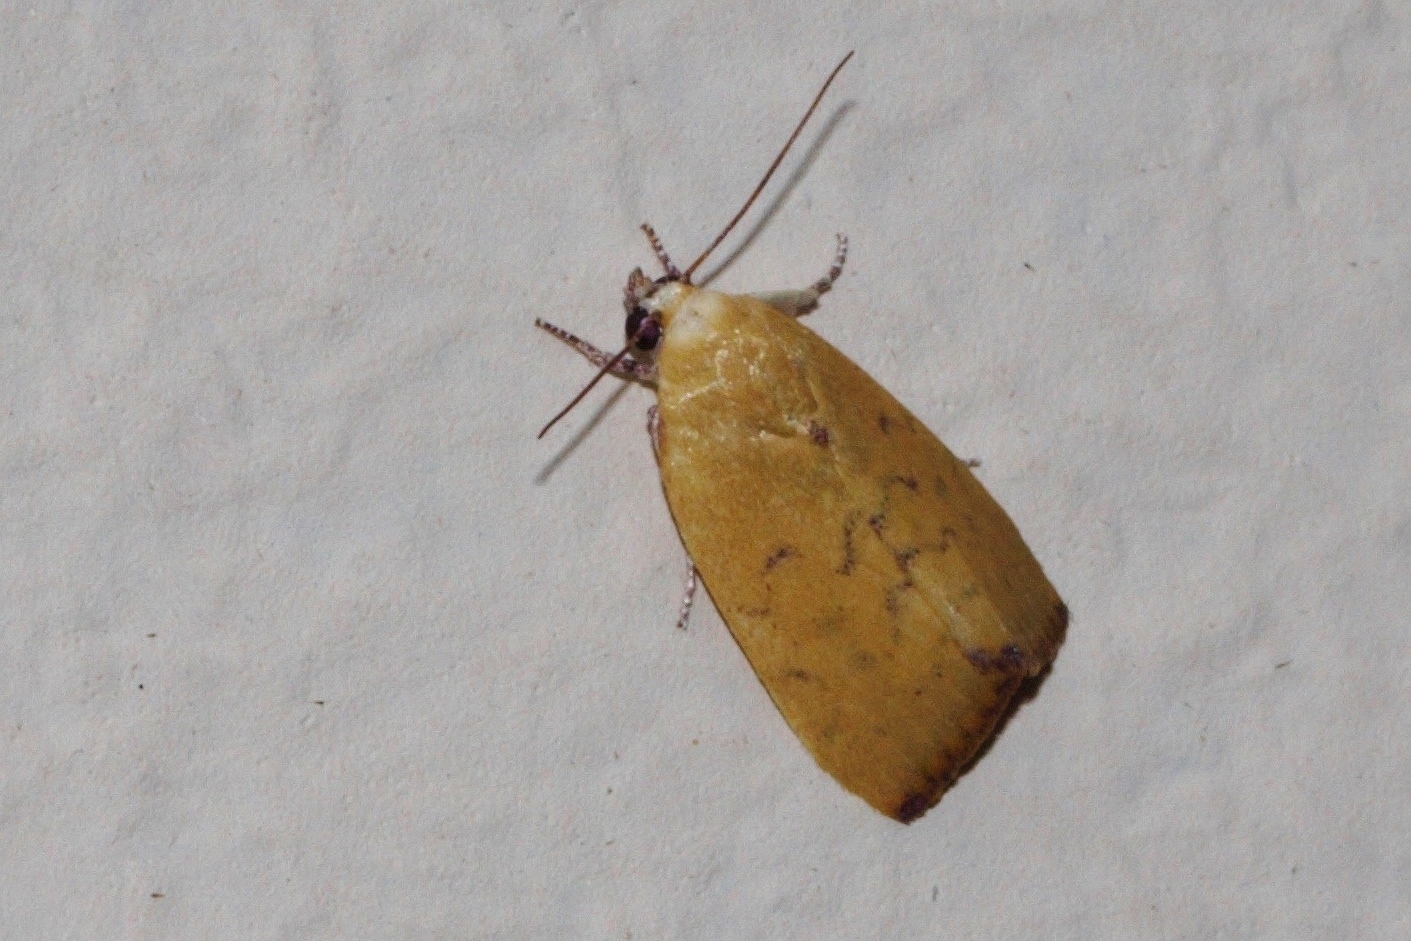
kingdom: Animalia
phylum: Arthropoda
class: Insecta
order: Lepidoptera
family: Nolidae
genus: Earias
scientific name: Earias biplaga
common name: Spiny bollworm
